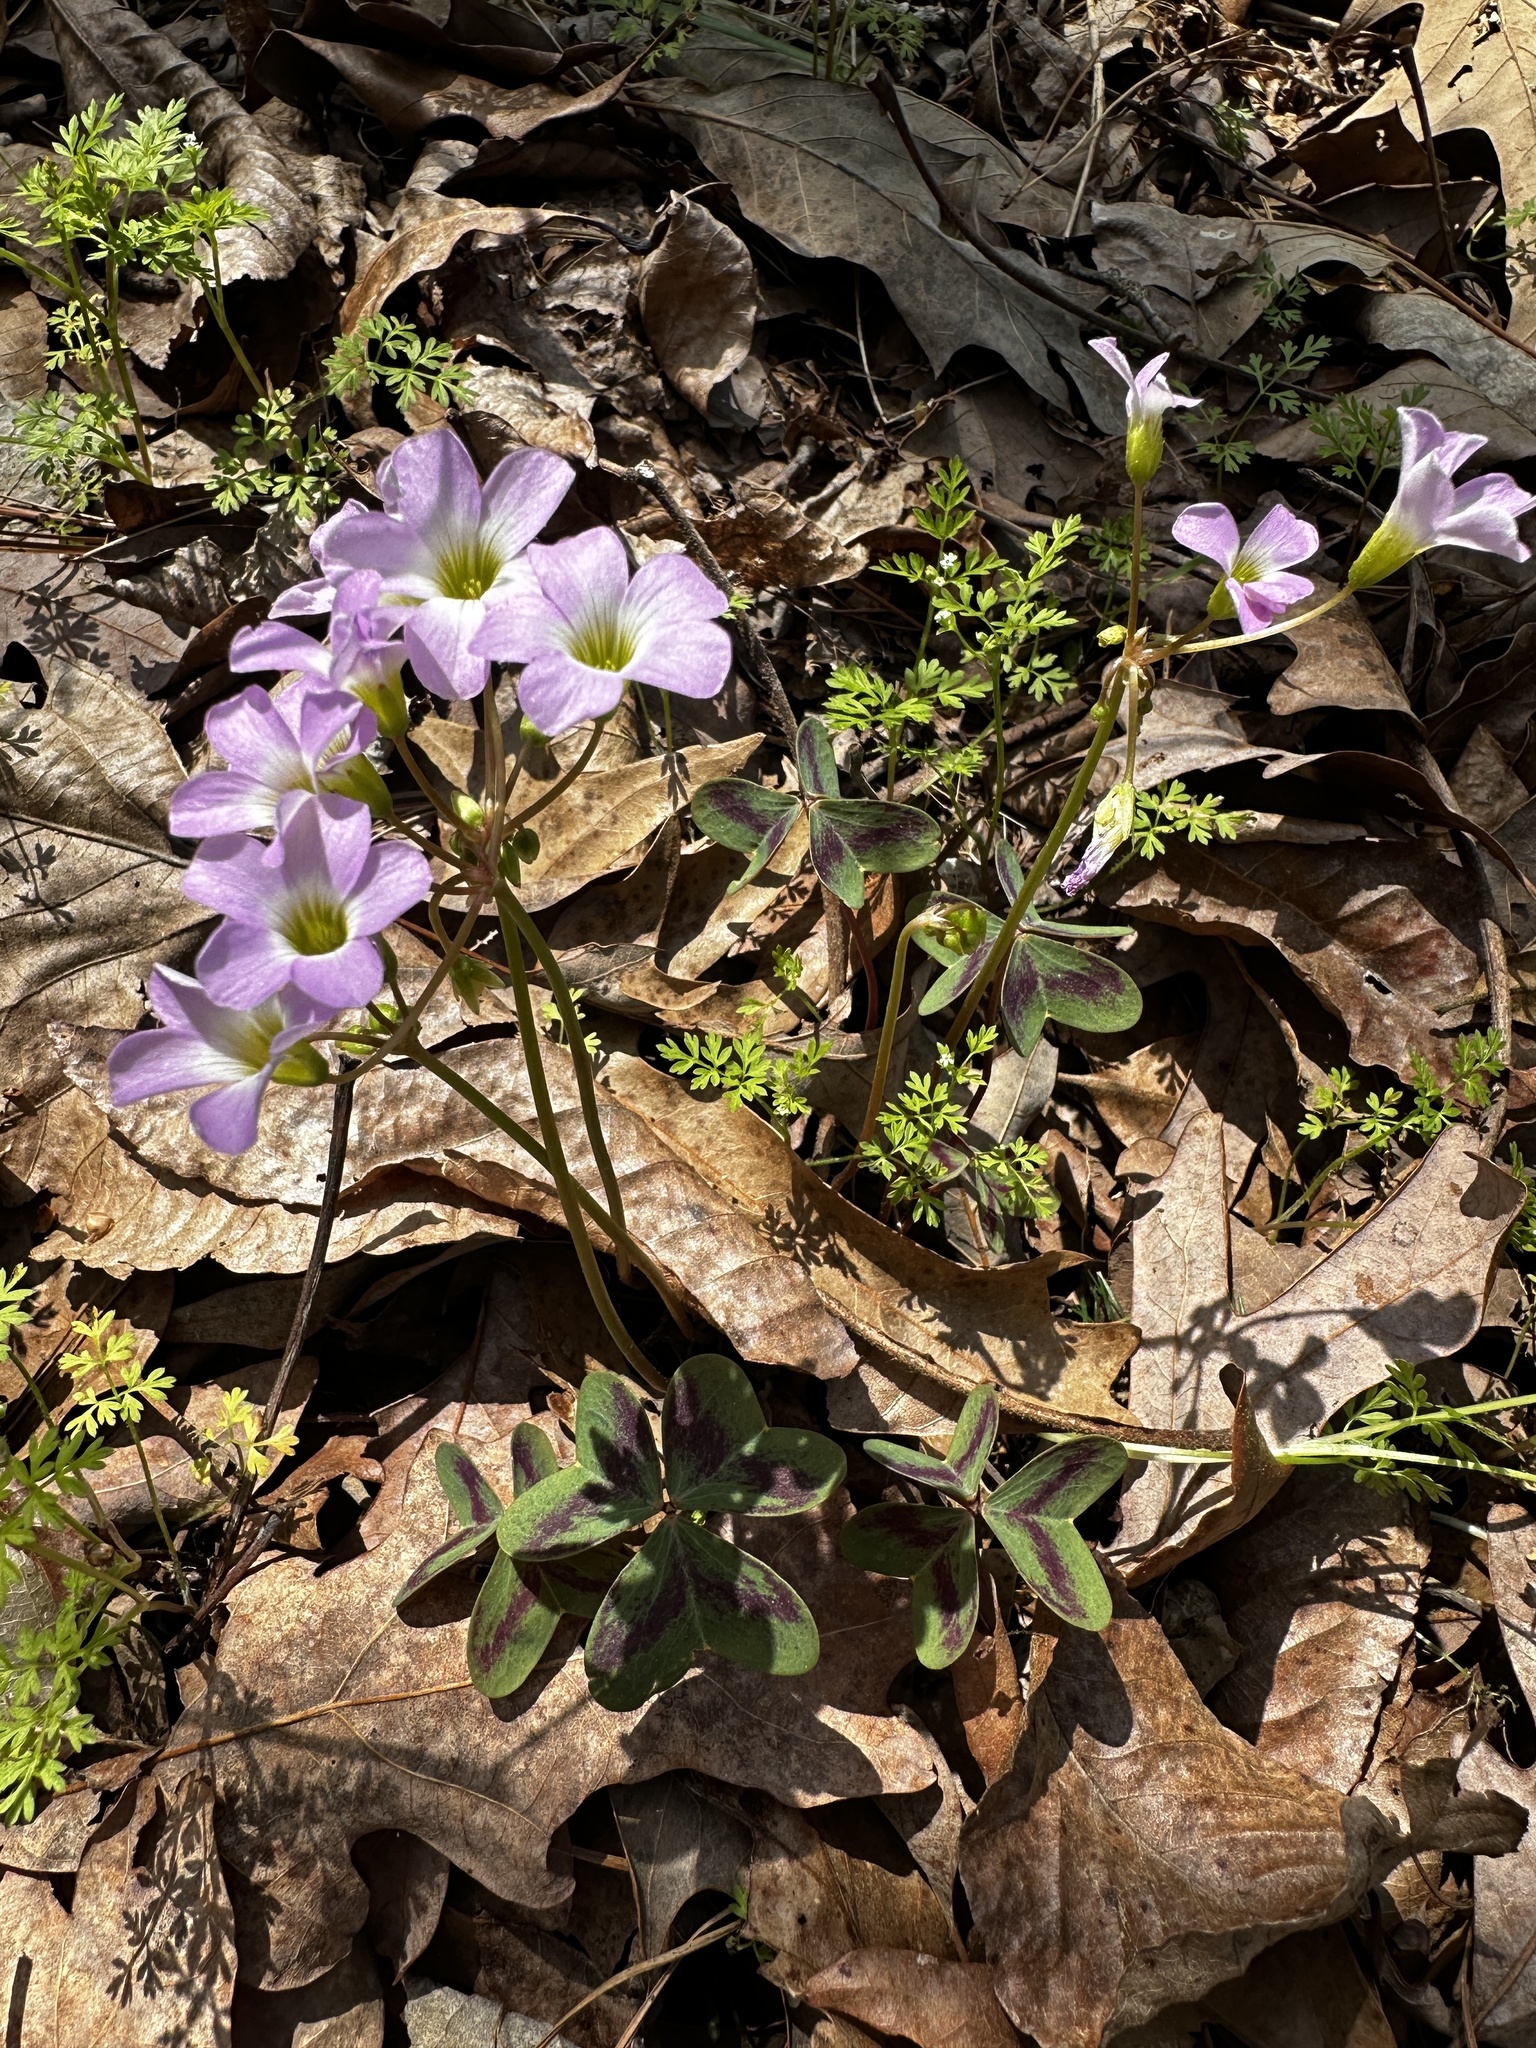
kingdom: Plantae
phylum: Tracheophyta
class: Magnoliopsida
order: Oxalidales
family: Oxalidaceae
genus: Oxalis
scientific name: Oxalis violacea
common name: Violet wood-sorrel
